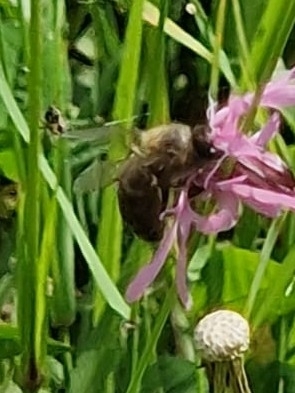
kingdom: Animalia
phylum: Arthropoda
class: Insecta
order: Hymenoptera
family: Apidae
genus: Apis
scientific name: Apis mellifera
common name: Honey bee
